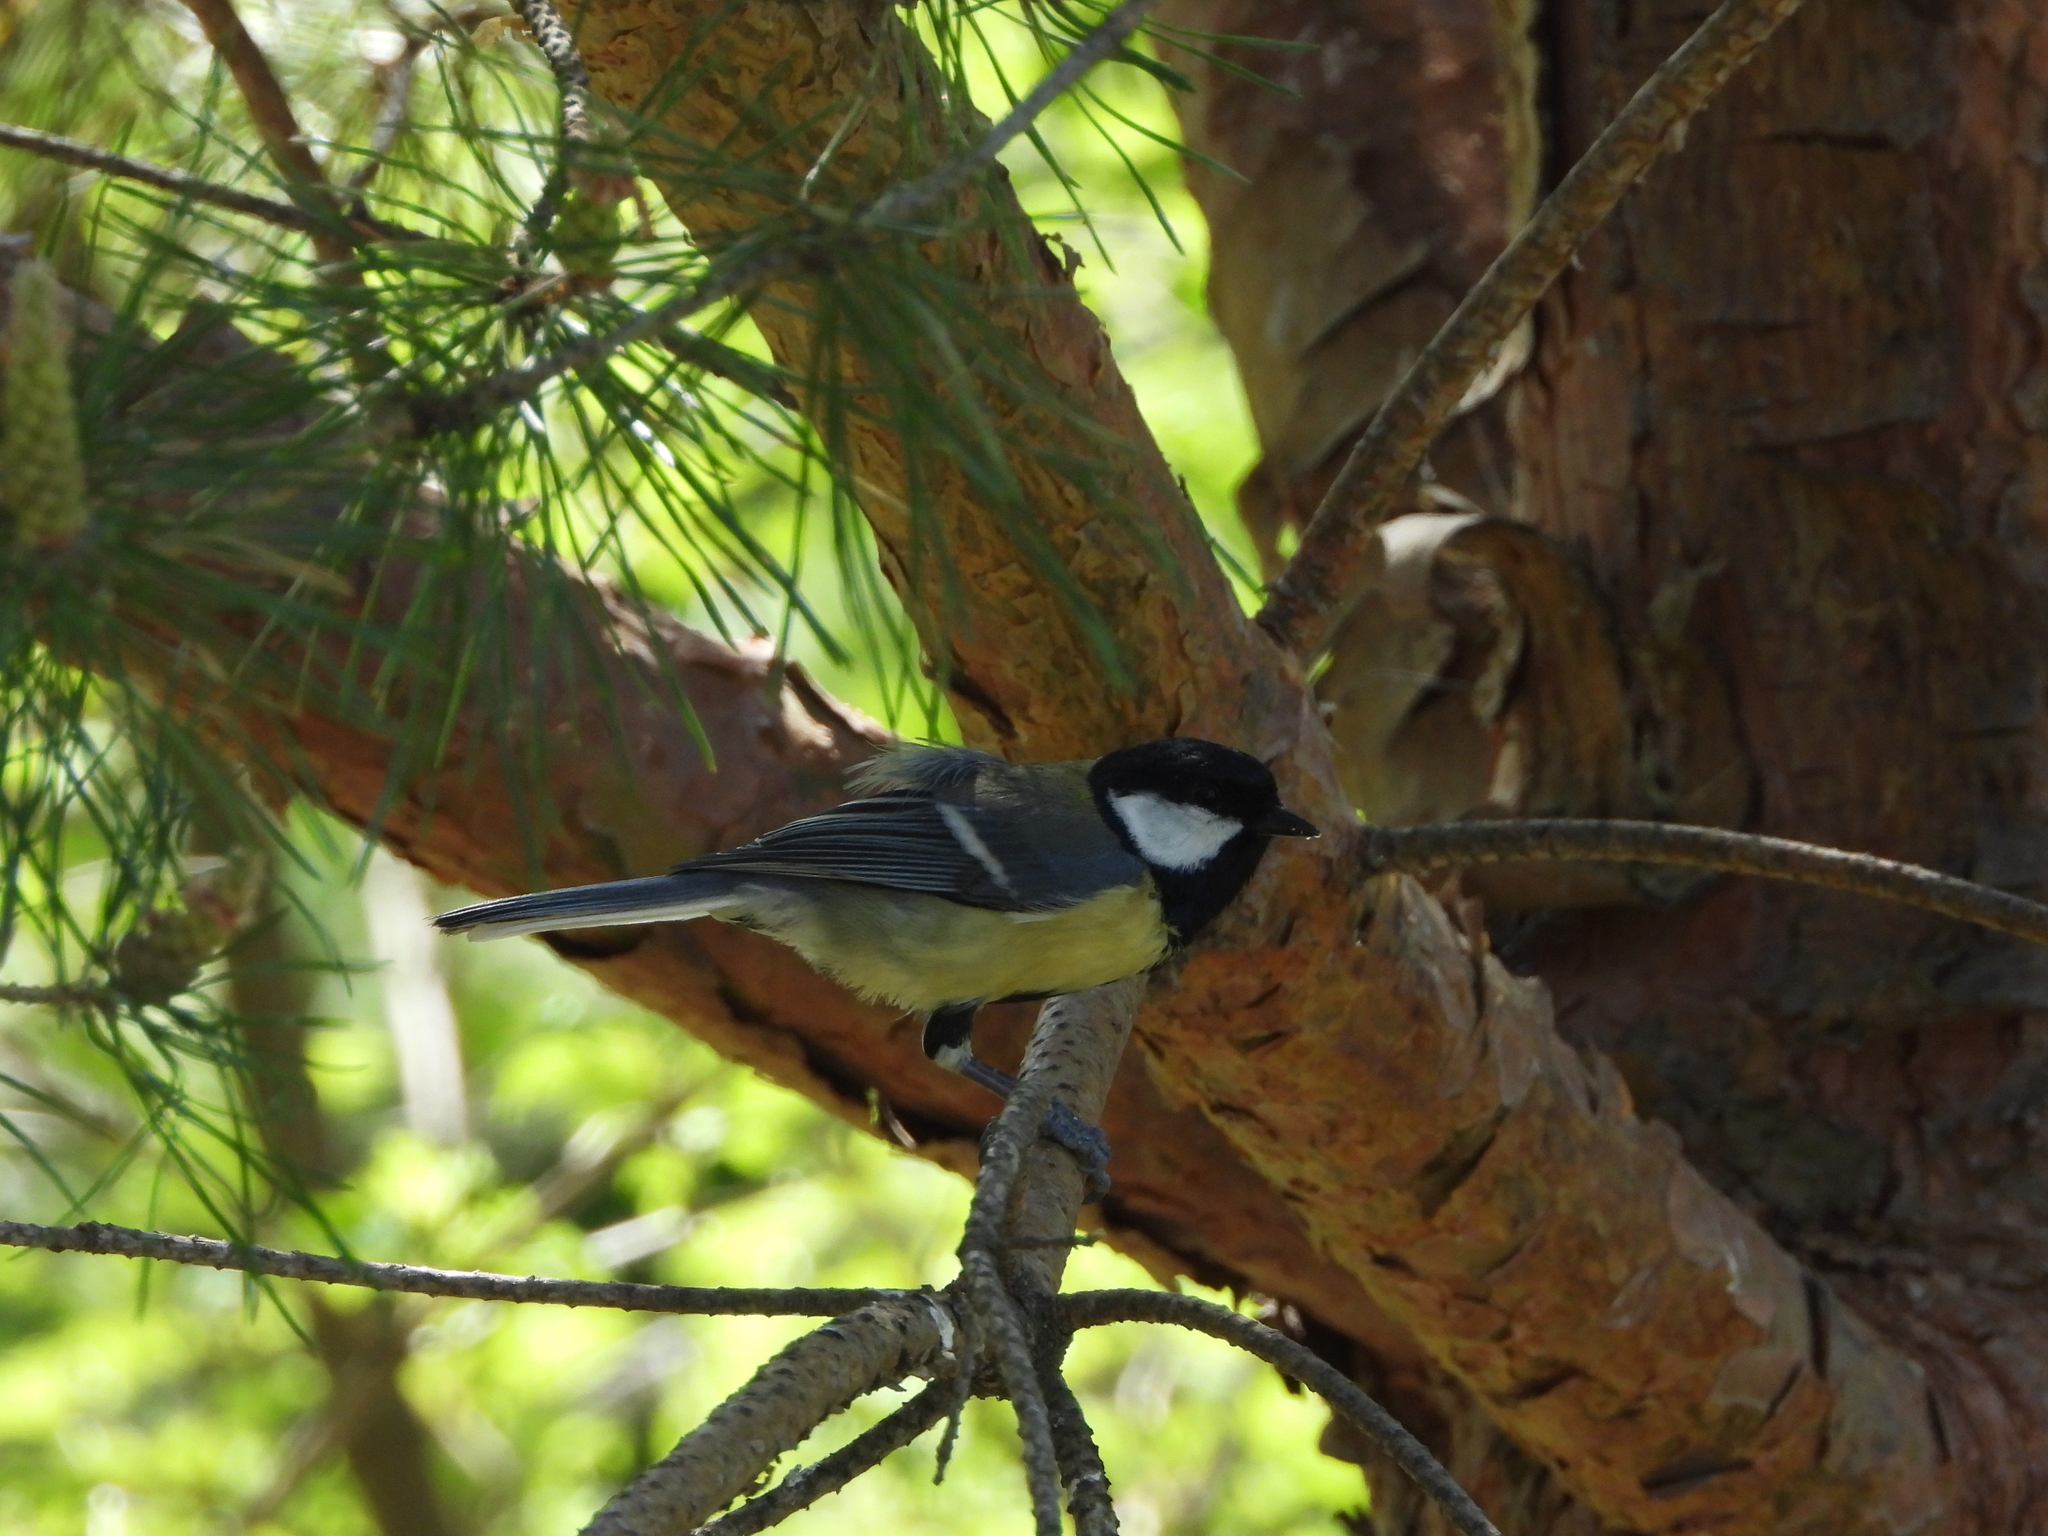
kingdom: Animalia
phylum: Chordata
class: Aves
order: Passeriformes
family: Paridae
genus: Parus
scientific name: Parus major
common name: Great tit
